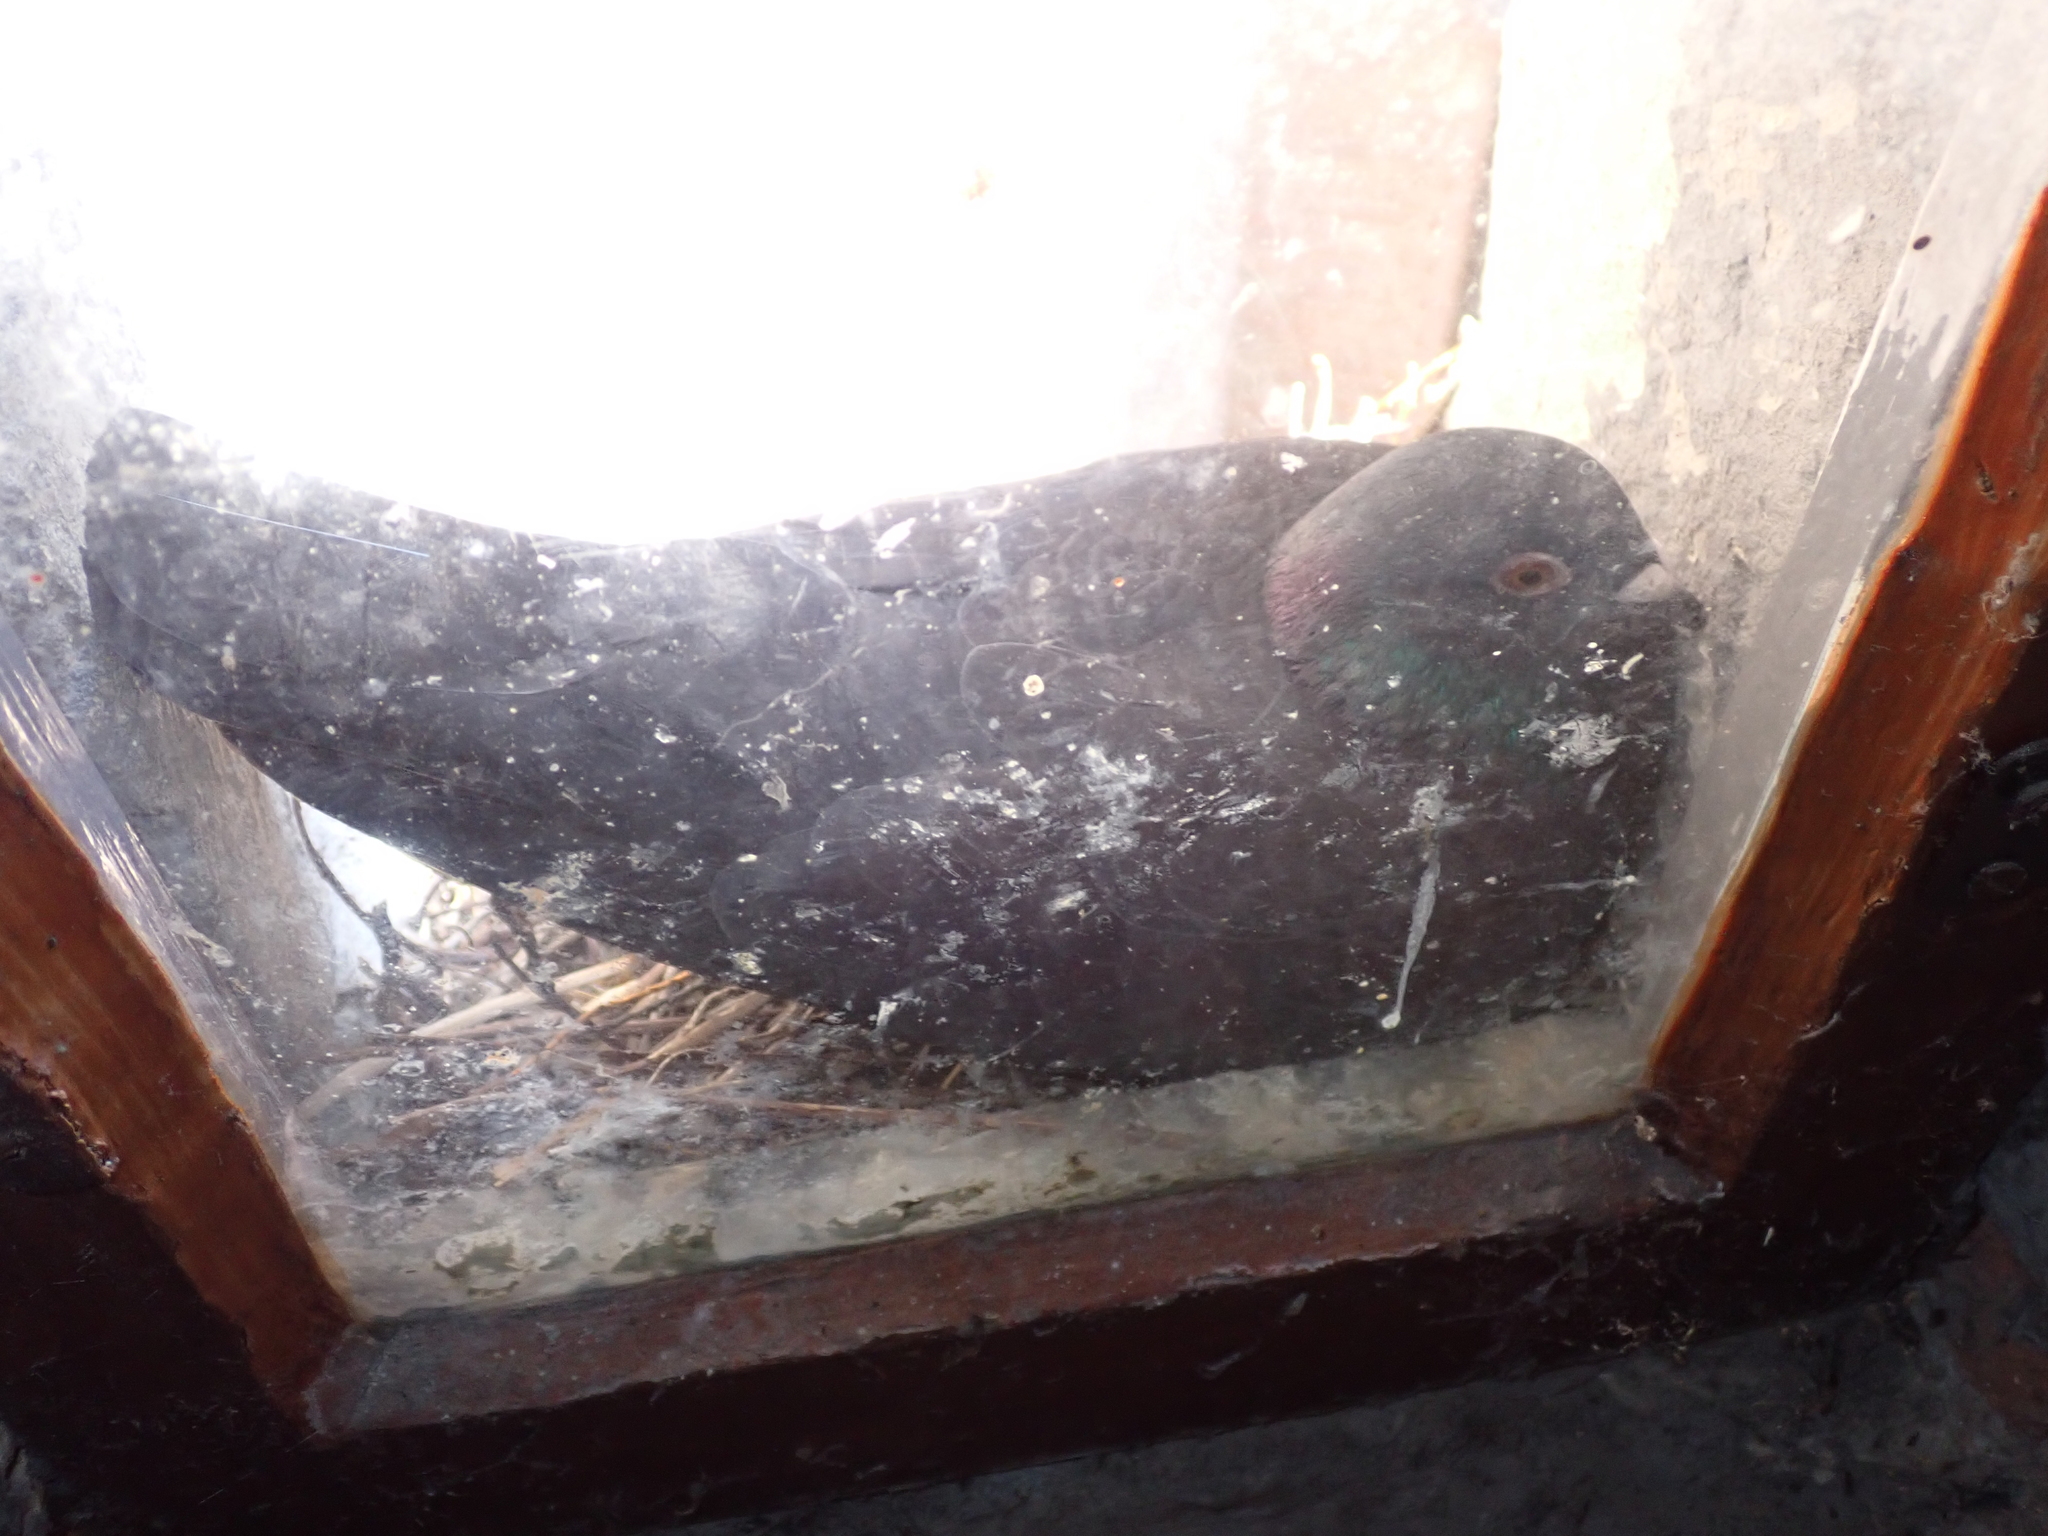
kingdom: Animalia
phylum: Chordata
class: Aves
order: Columbiformes
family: Columbidae
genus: Columba
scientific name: Columba livia
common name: Rock pigeon
